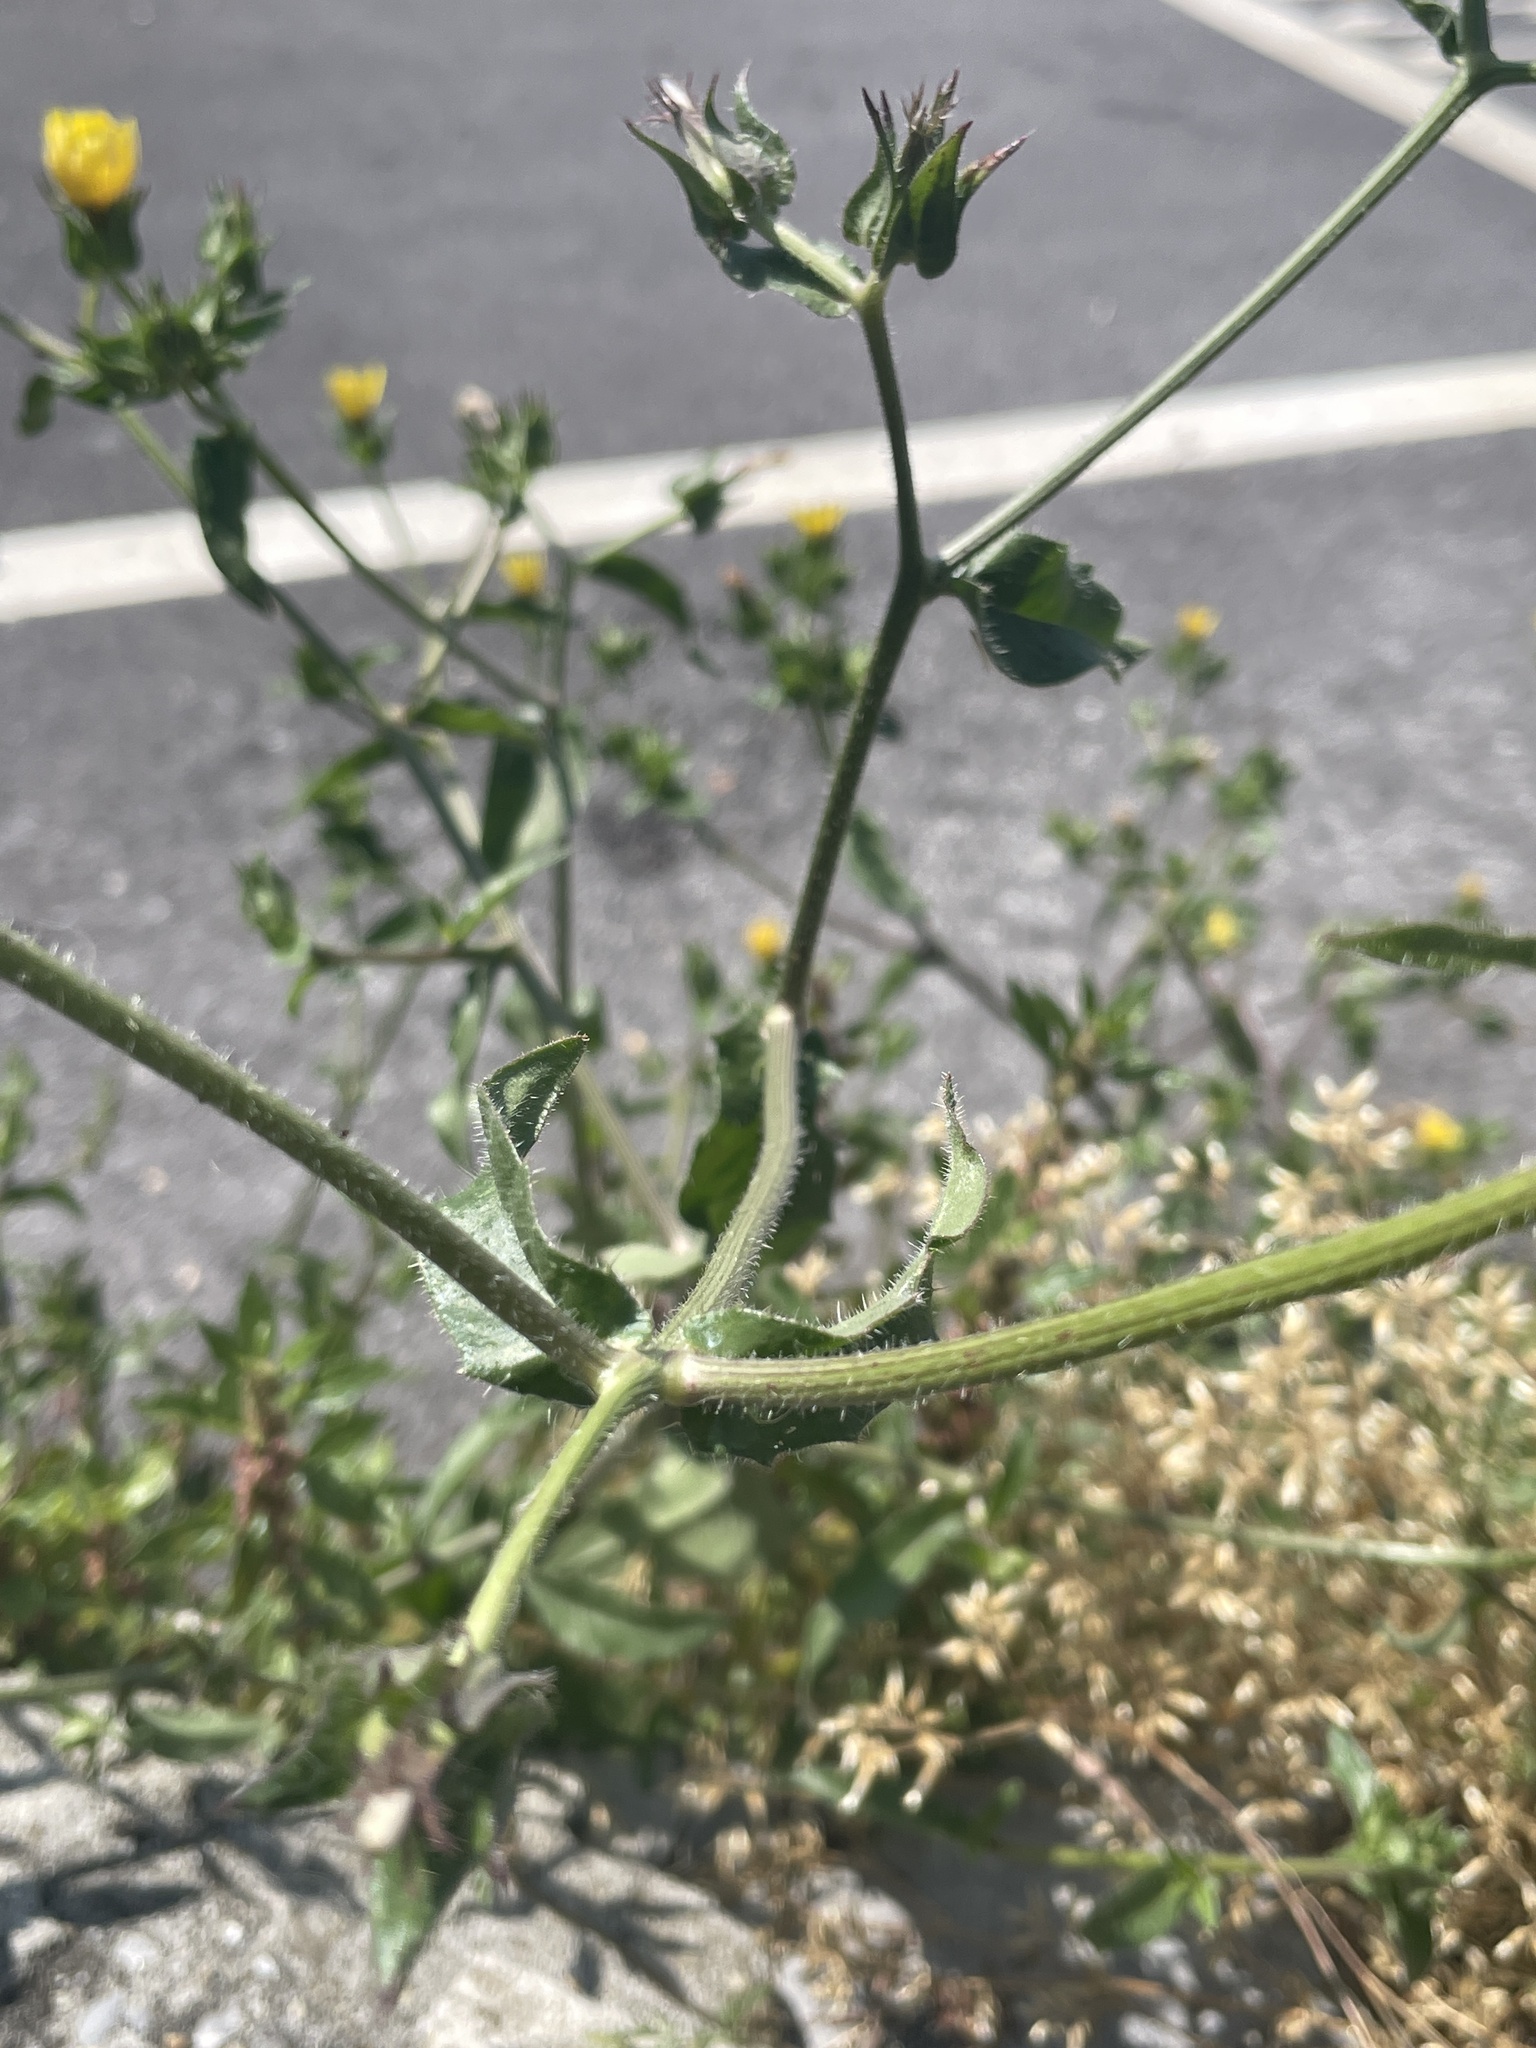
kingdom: Plantae
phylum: Tracheophyta
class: Magnoliopsida
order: Asterales
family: Asteraceae
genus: Helminthotheca
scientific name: Helminthotheca echioides
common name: Ox-tongue
